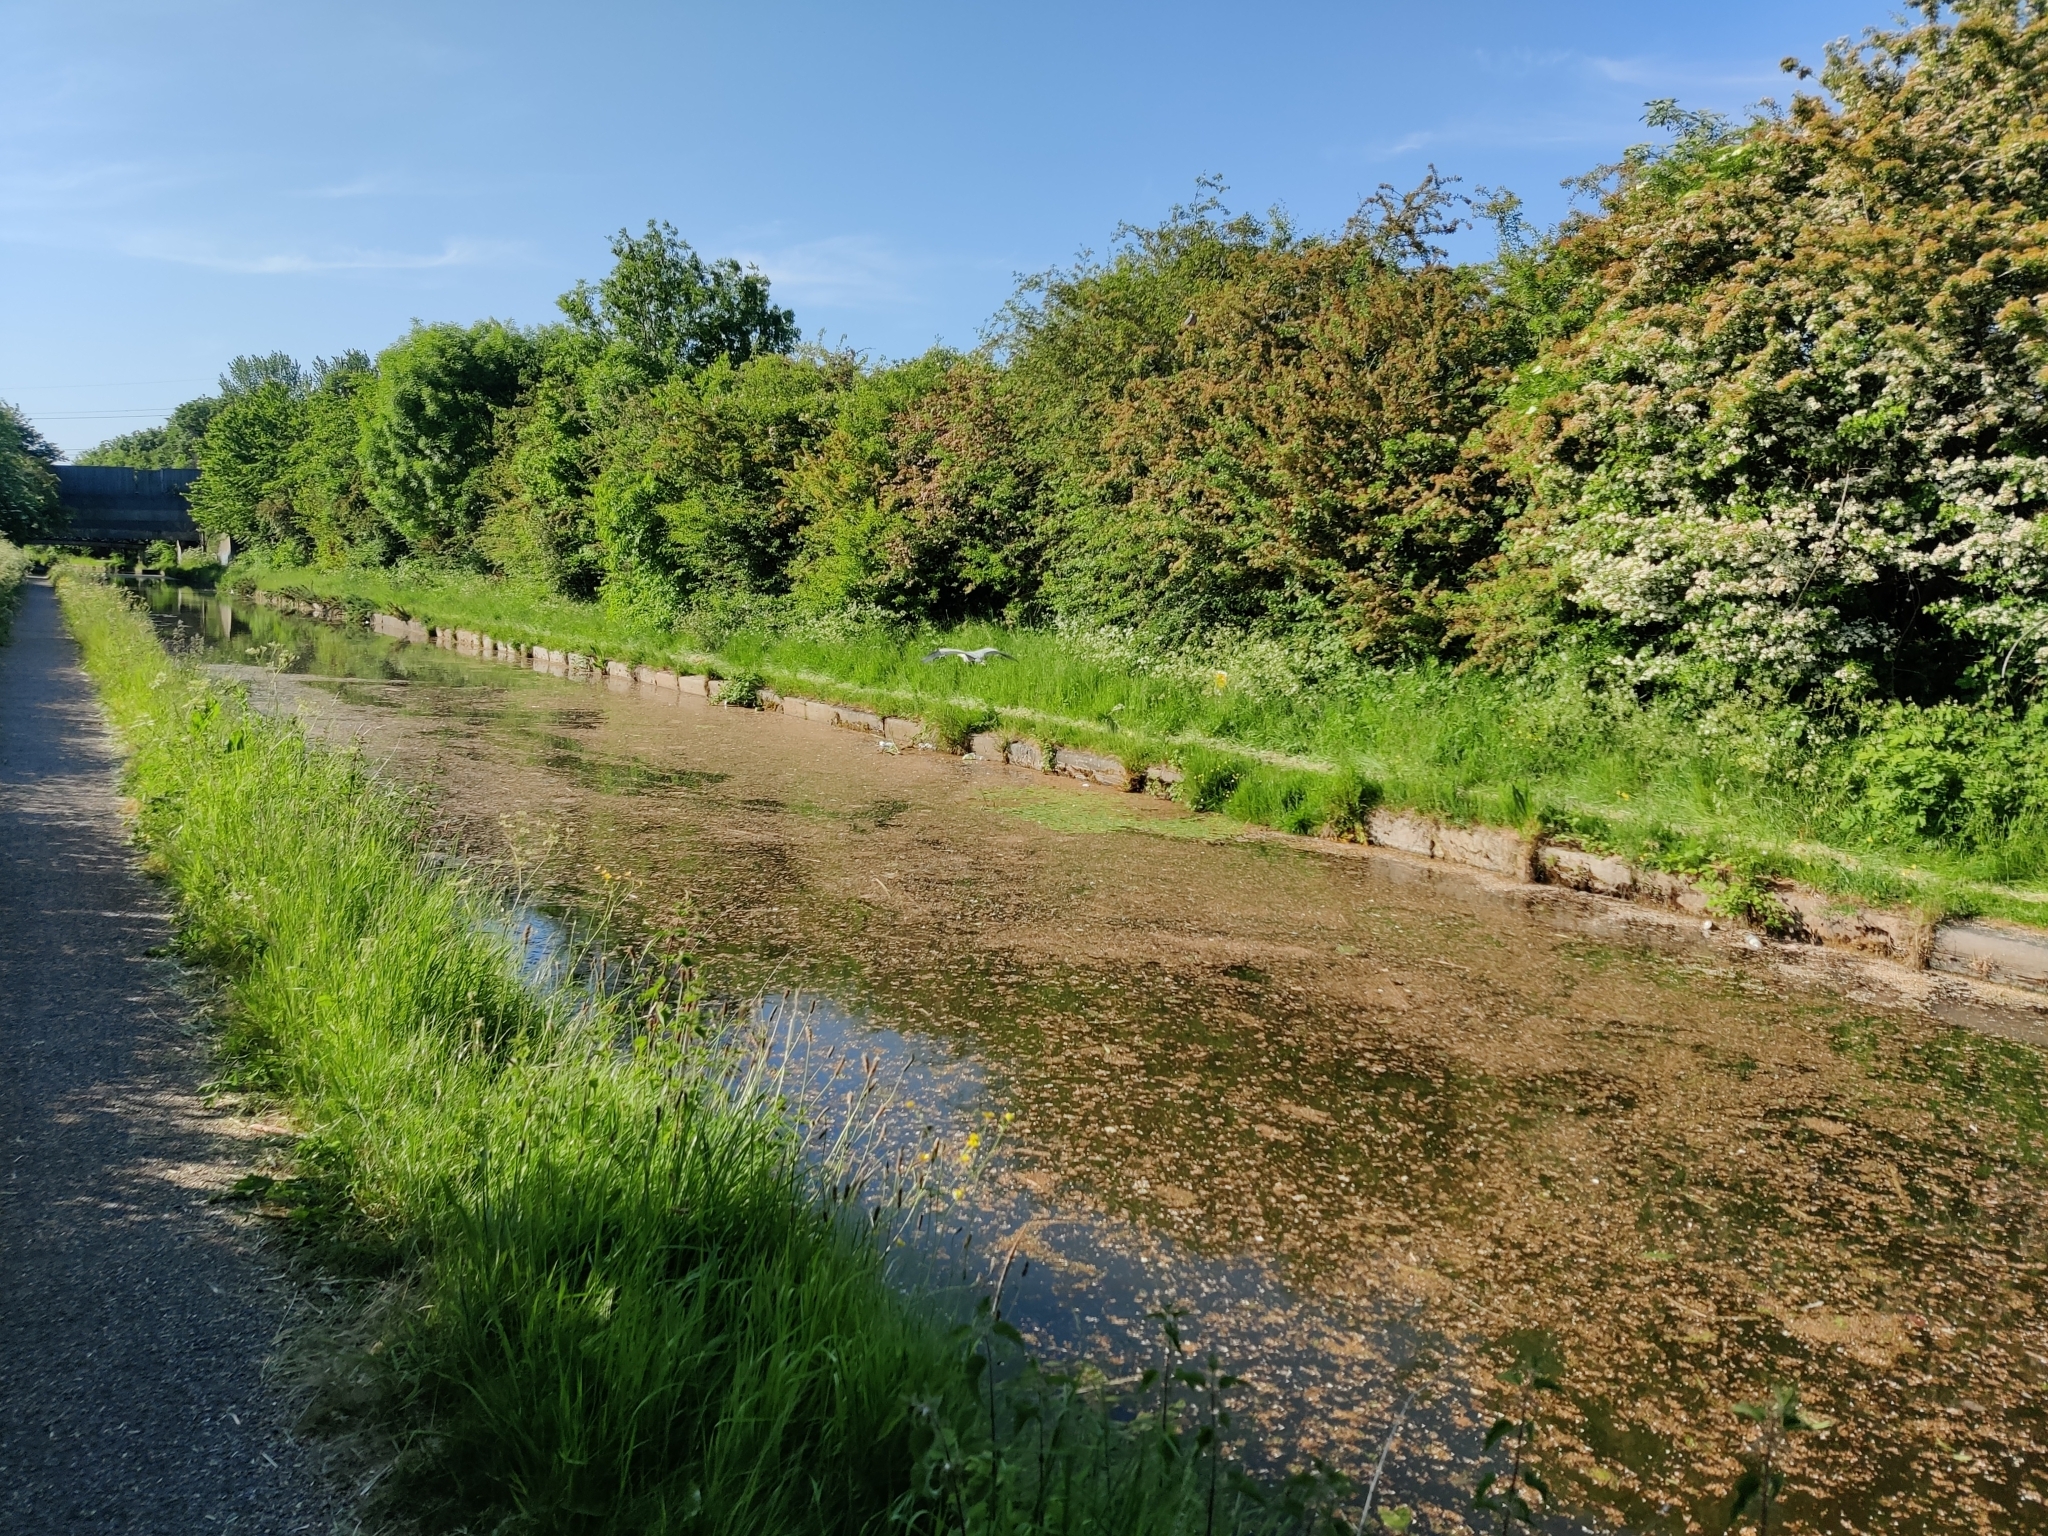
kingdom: Animalia
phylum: Chordata
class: Aves
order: Pelecaniformes
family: Ardeidae
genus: Ardea
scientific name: Ardea cinerea
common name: Grey heron
